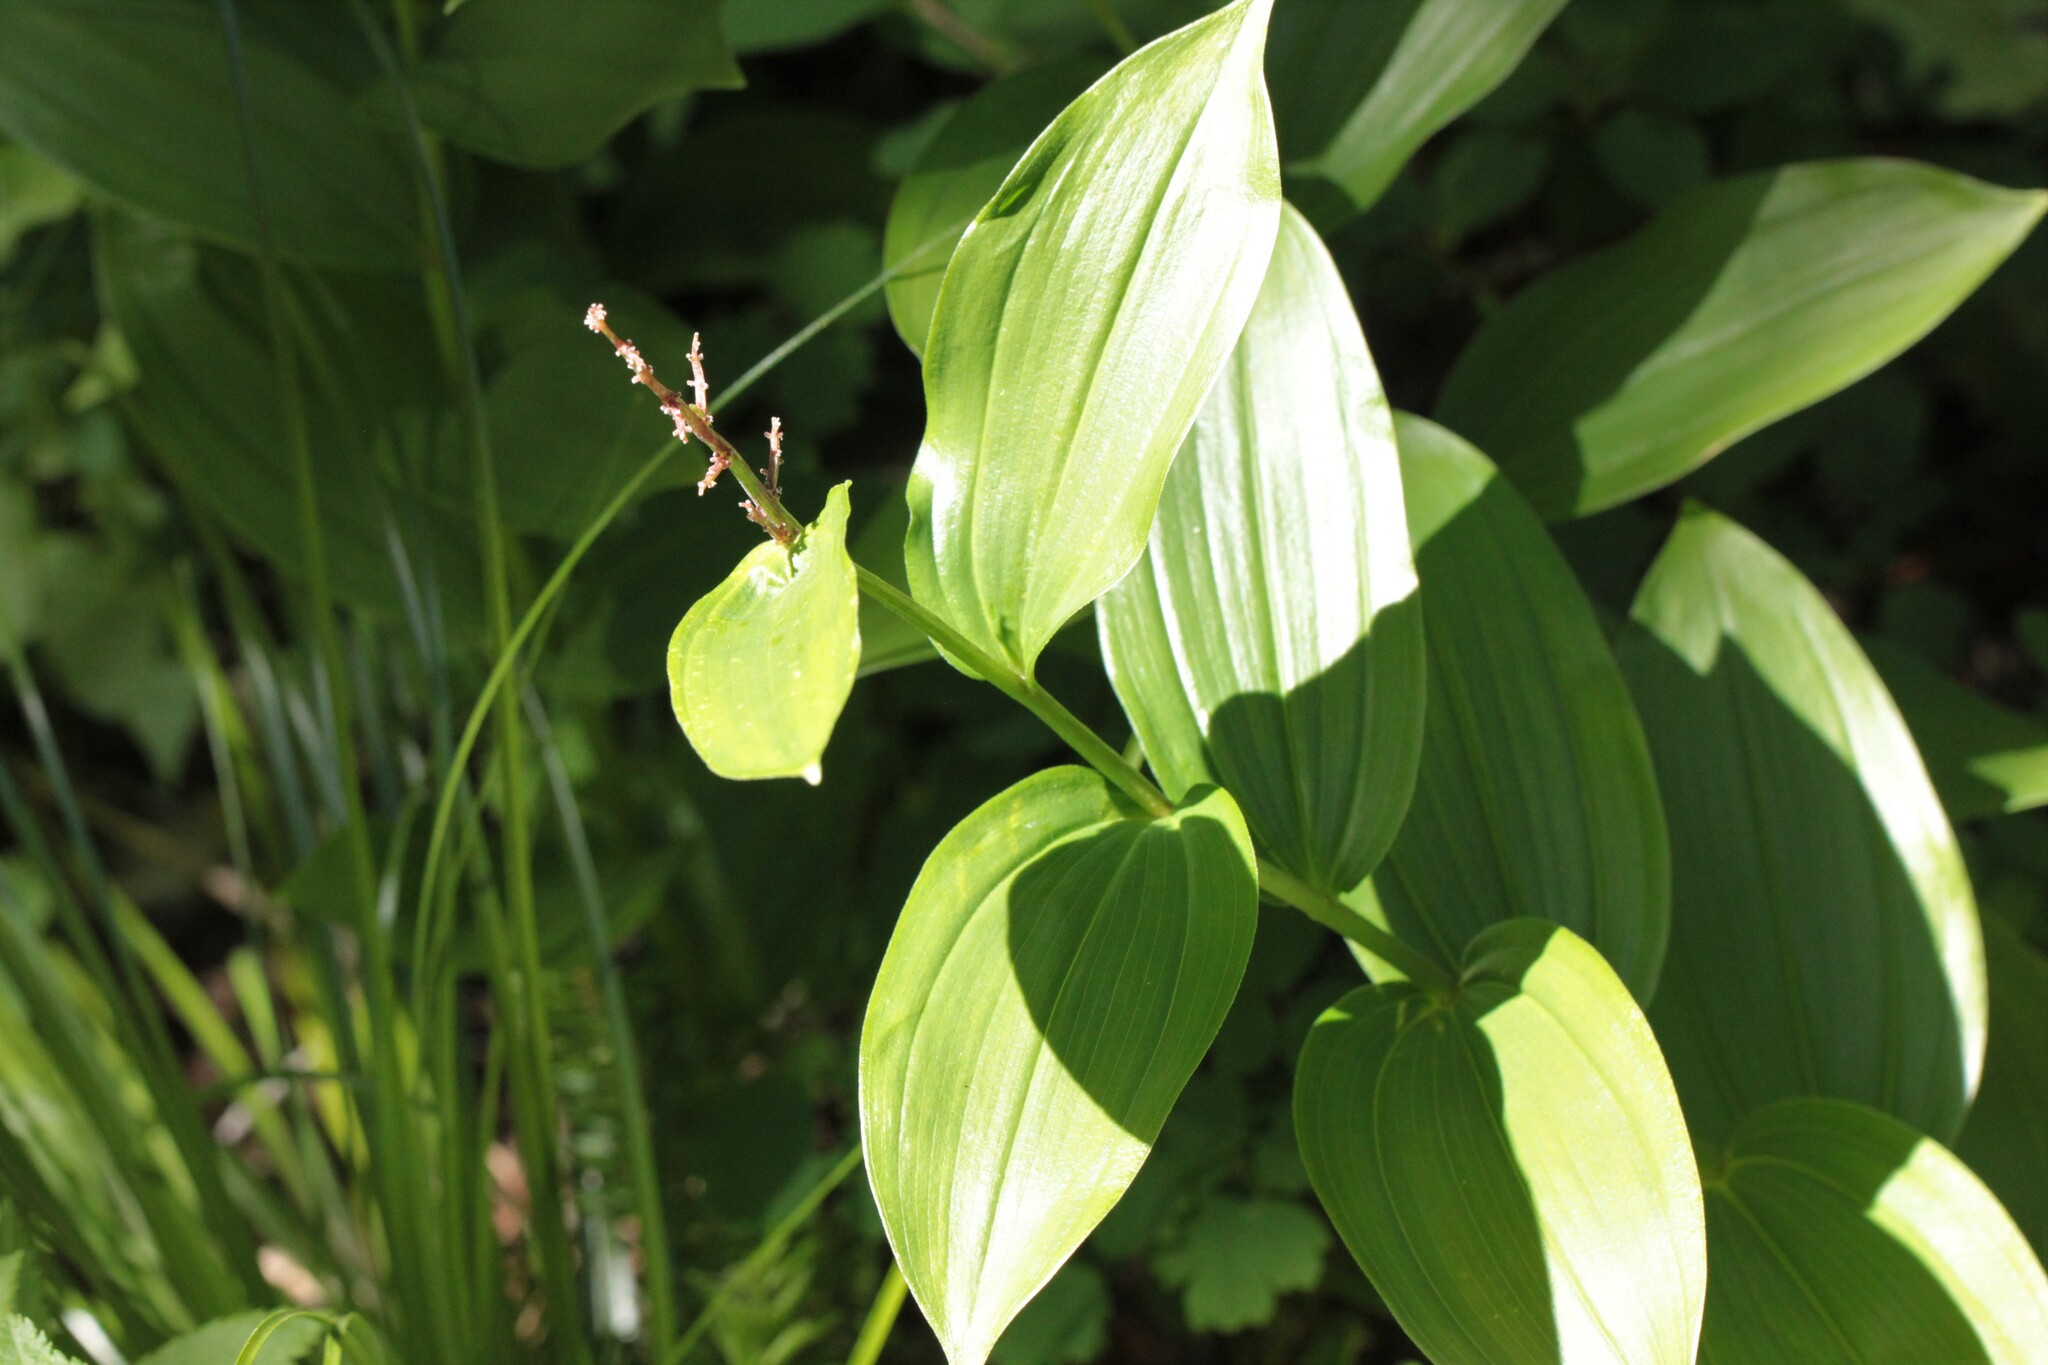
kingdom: Plantae
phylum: Tracheophyta
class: Liliopsida
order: Asparagales
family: Asparagaceae
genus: Maianthemum
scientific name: Maianthemum racemosum
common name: False spikenard
